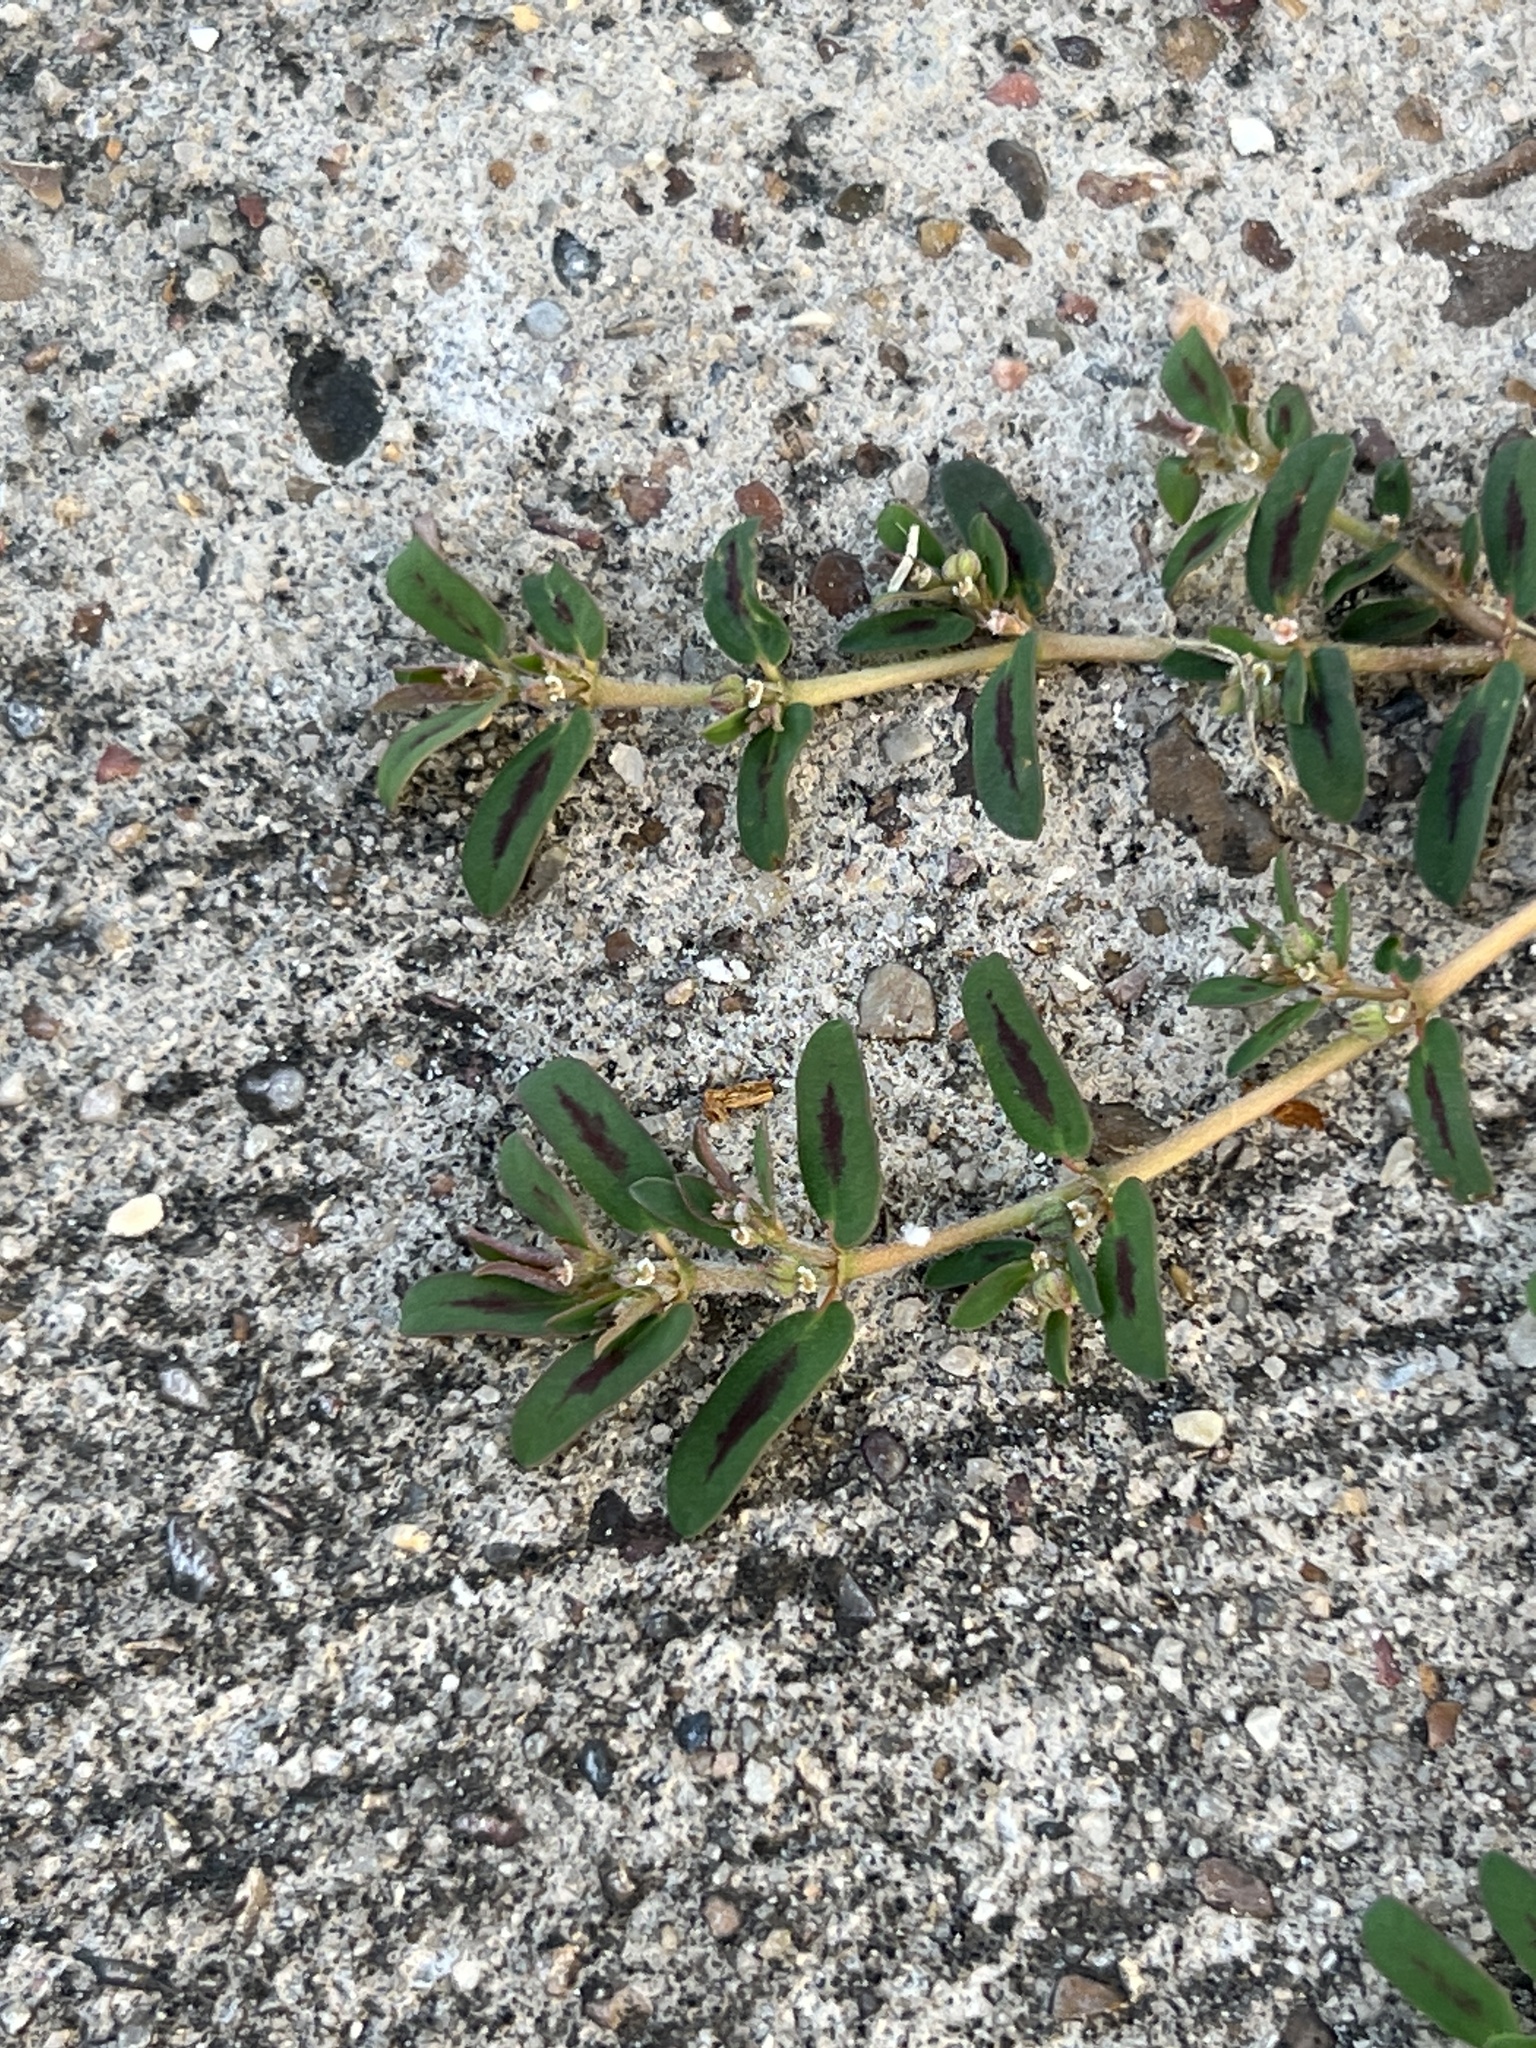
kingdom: Plantae
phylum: Tracheophyta
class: Magnoliopsida
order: Malpighiales
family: Euphorbiaceae
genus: Euphorbia
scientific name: Euphorbia maculata
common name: Spotted spurge
